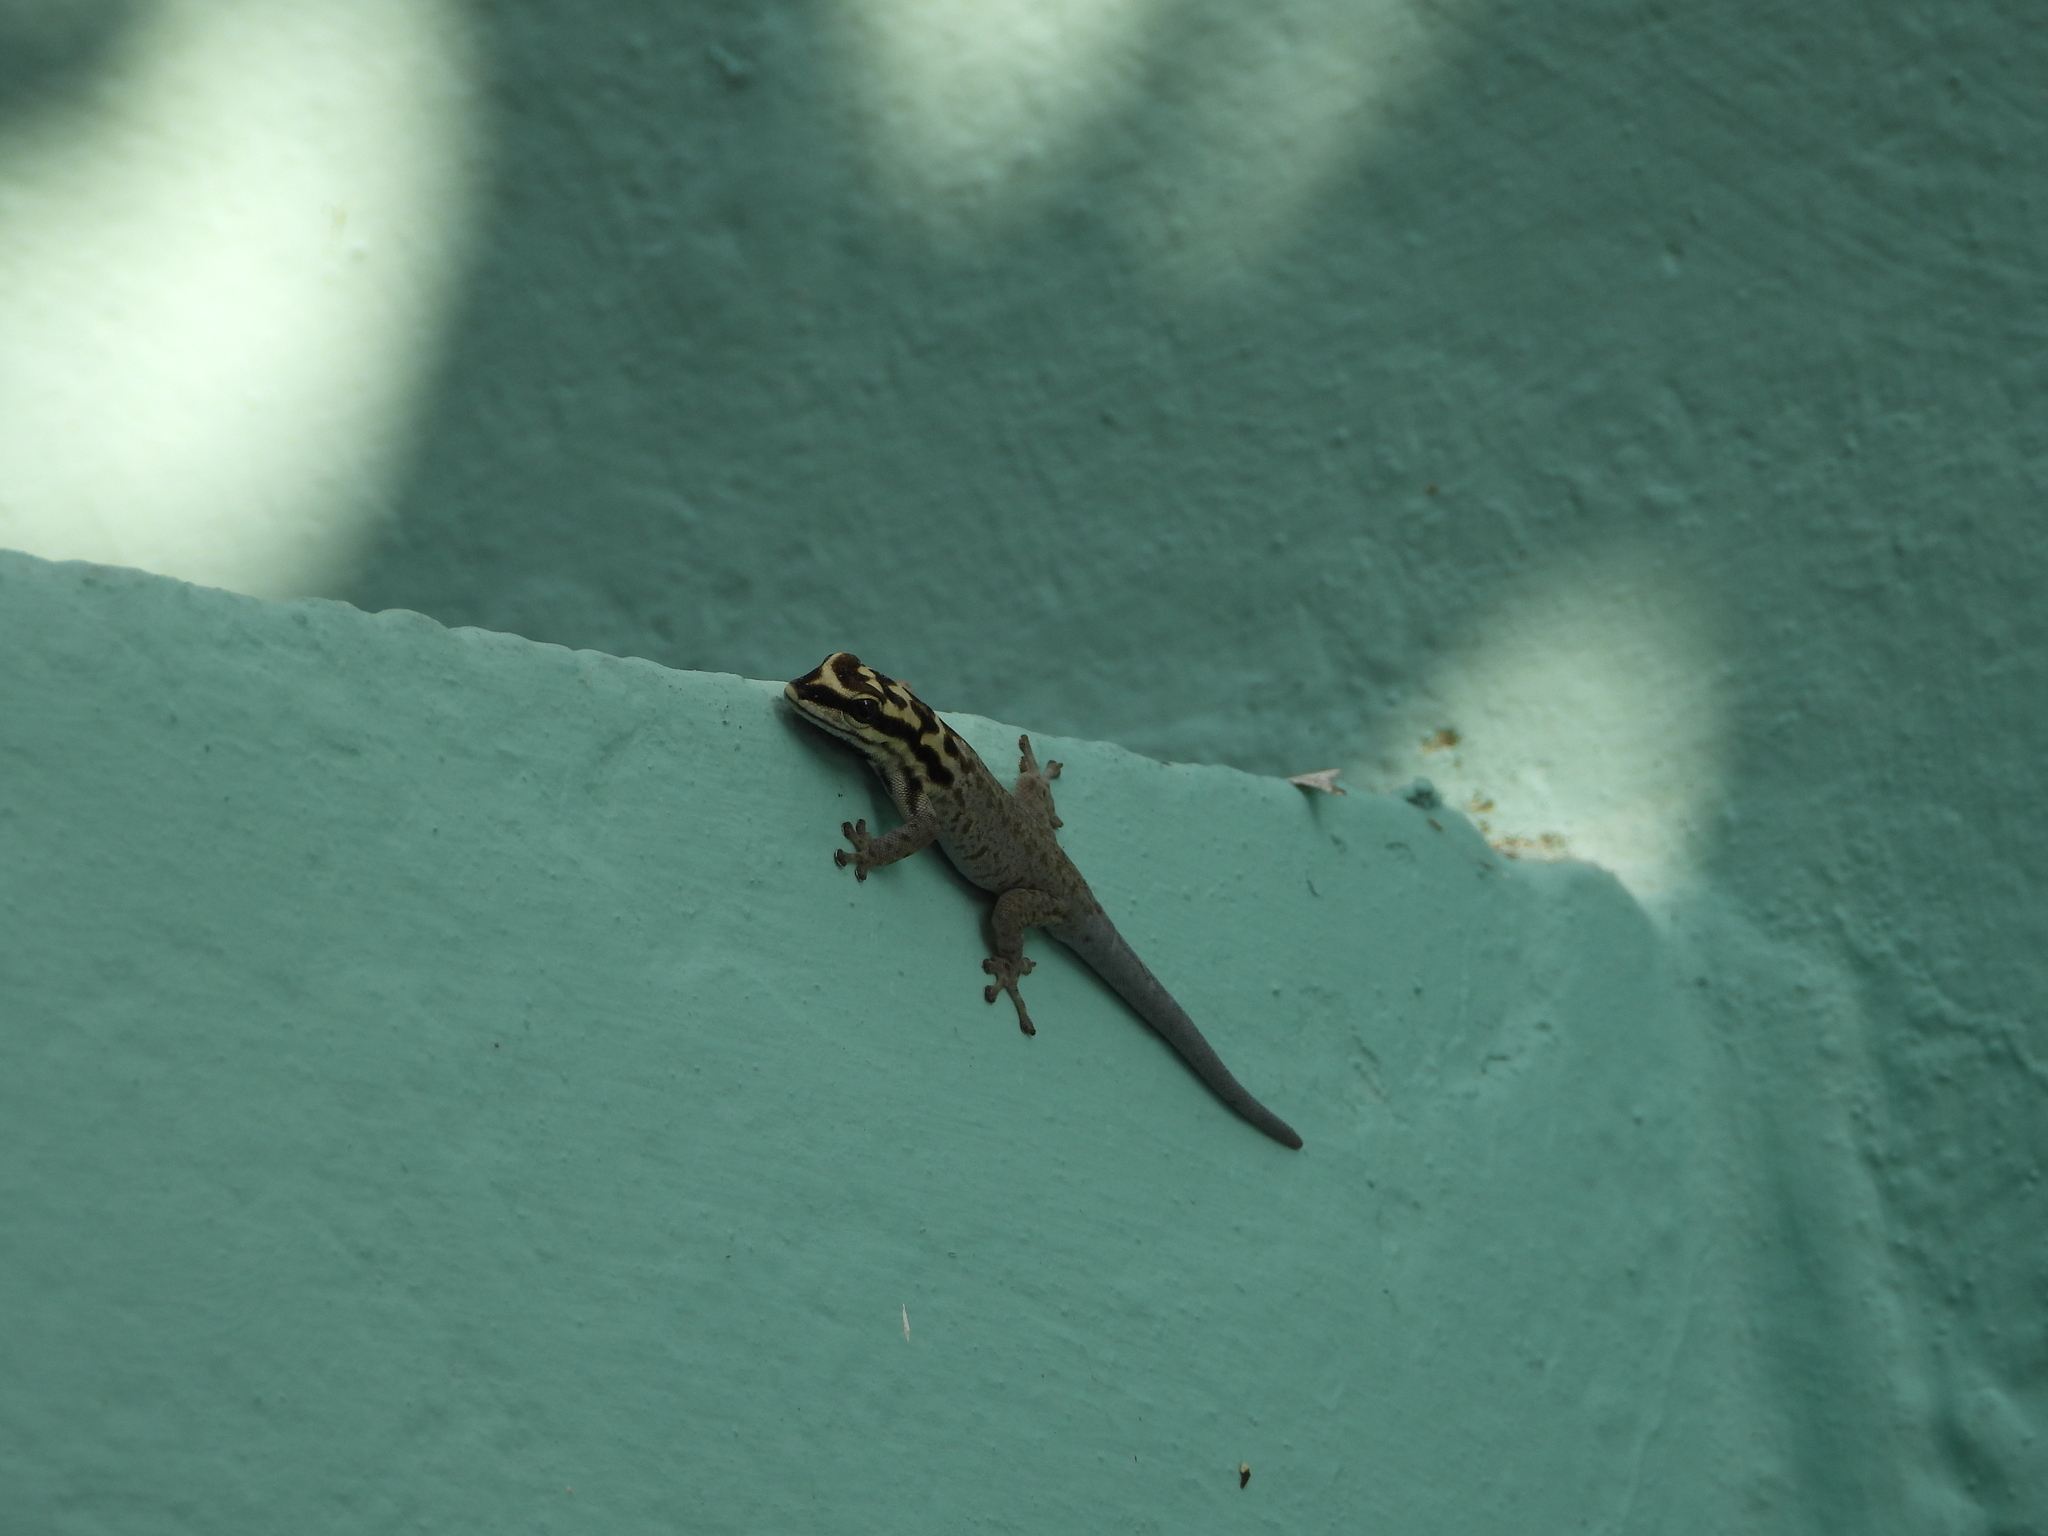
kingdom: Animalia
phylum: Chordata
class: Squamata
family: Gekkonidae
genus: Lygodactylus
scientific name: Lygodactylus mombasicus
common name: White-headed dwarf gecko
